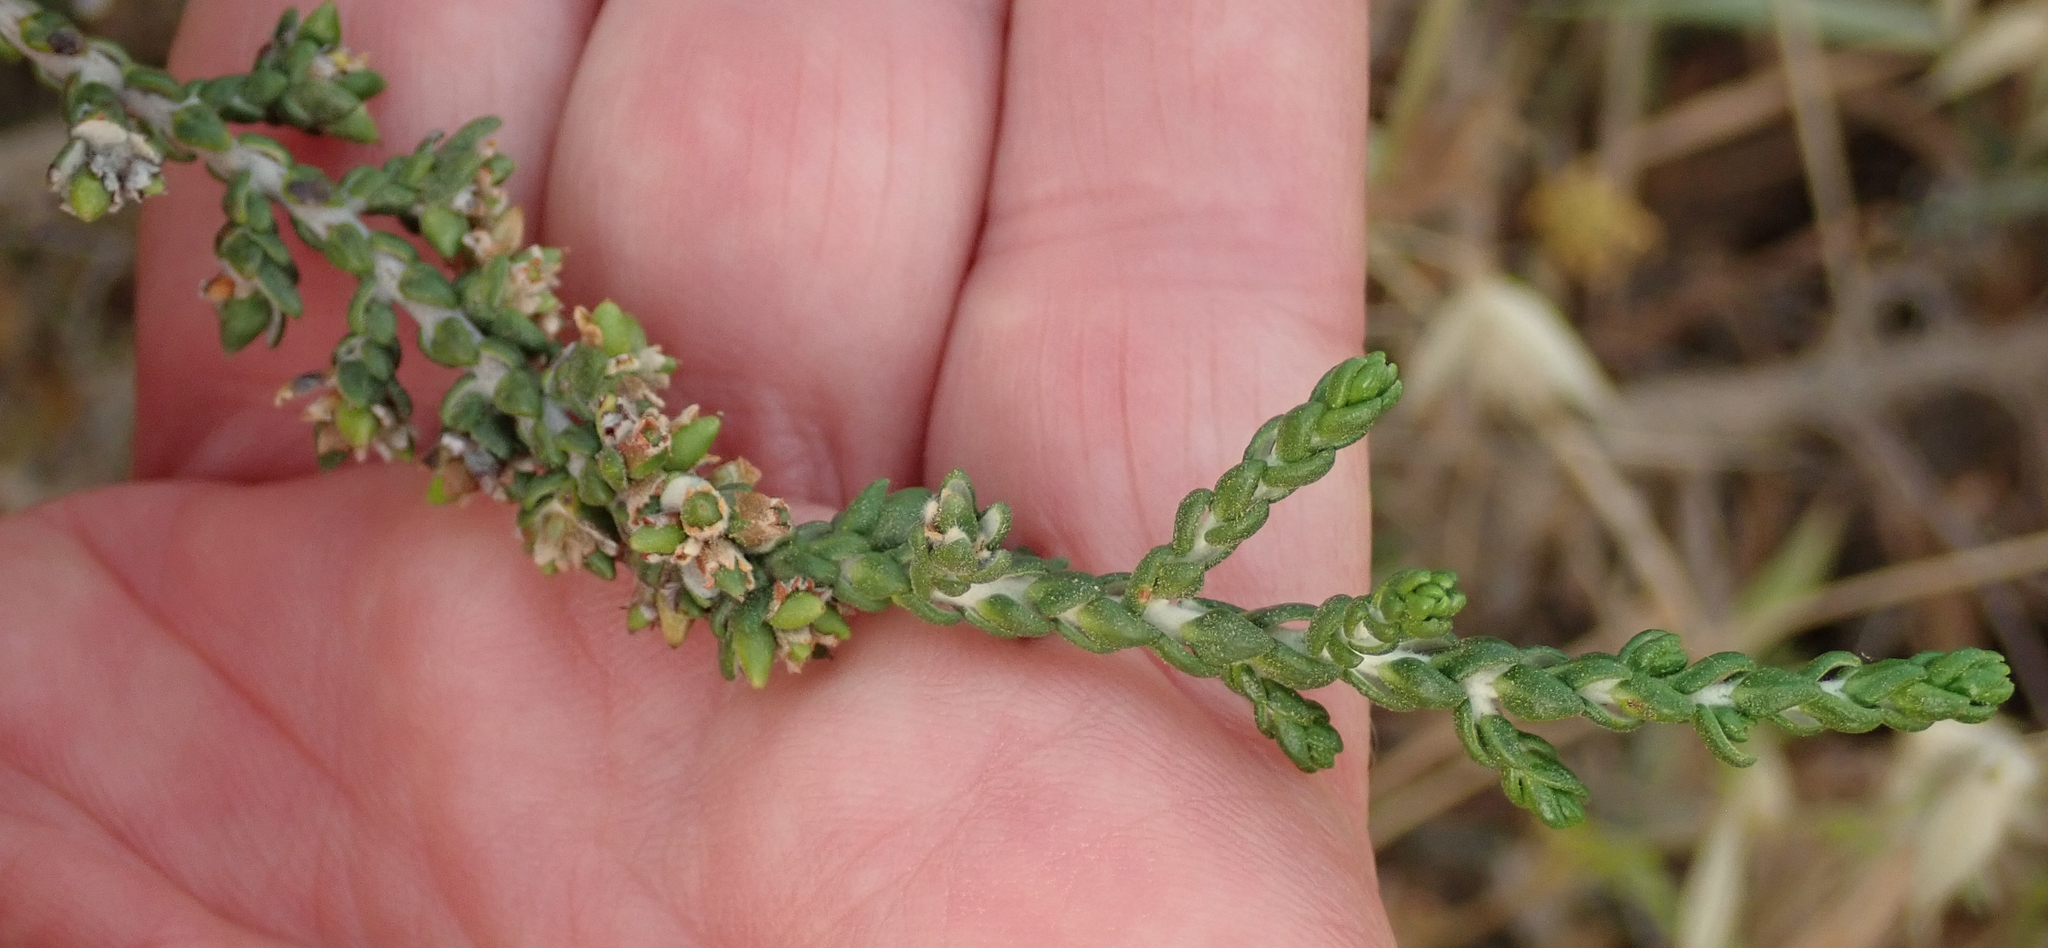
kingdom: Plantae
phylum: Tracheophyta
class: Magnoliopsida
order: Malvales
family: Thymelaeaceae
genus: Thymelaea
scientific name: Thymelaea hirsuta
